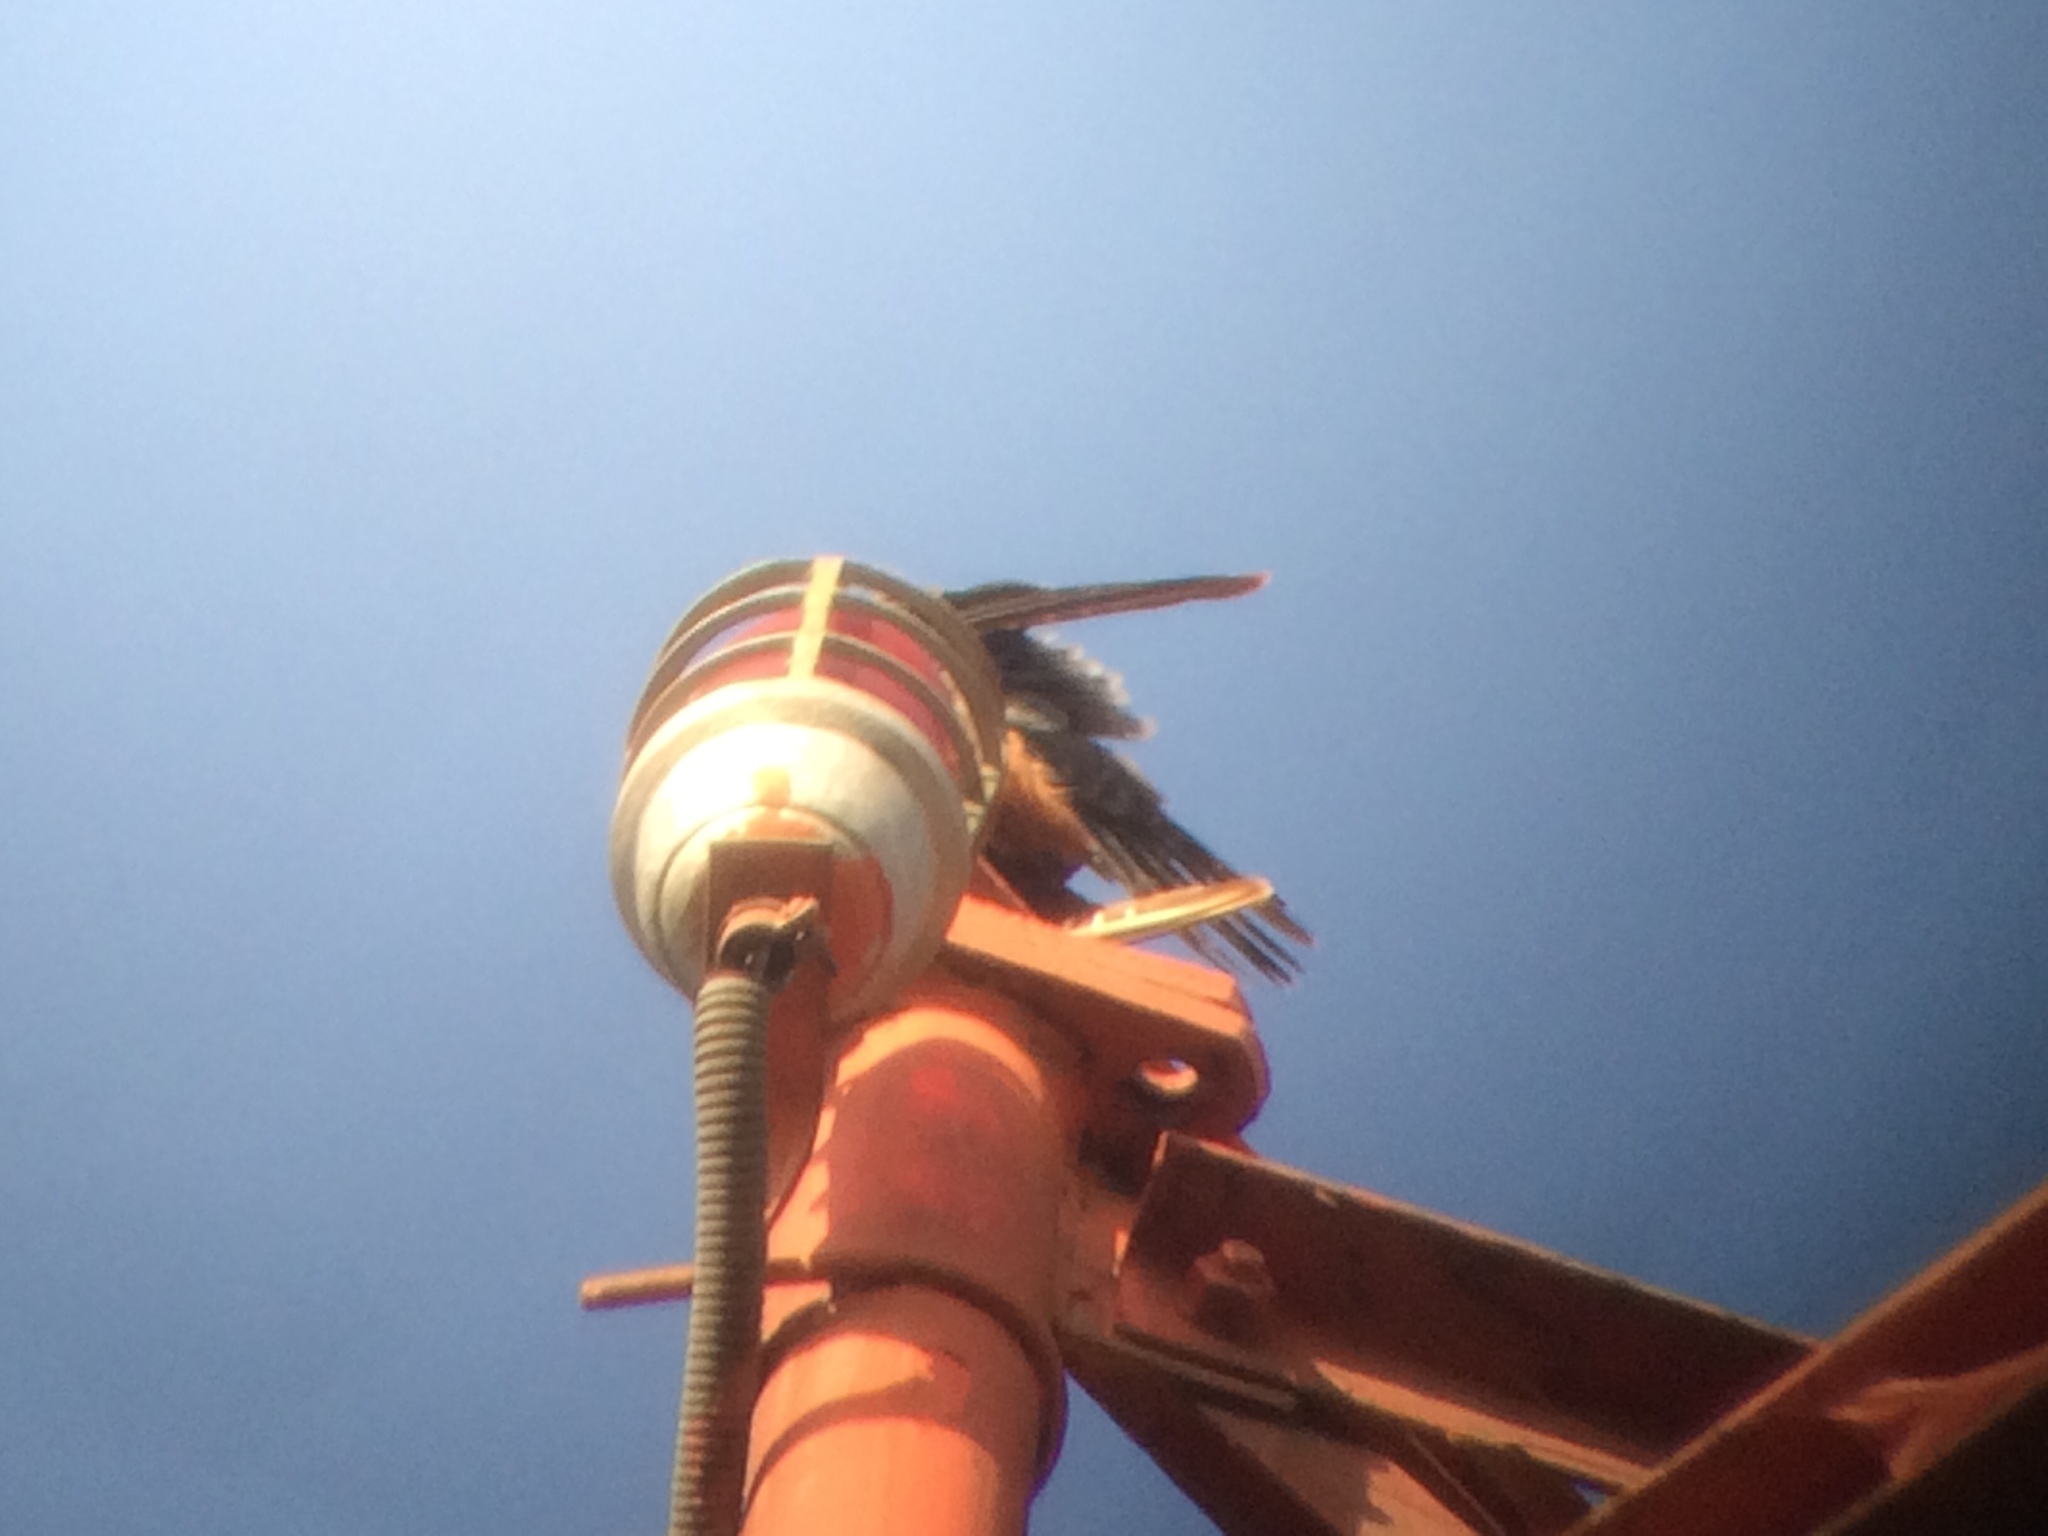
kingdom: Animalia
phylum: Chordata
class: Aves
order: Falconiformes
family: Falconidae
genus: Falco
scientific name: Falco rufigularis
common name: Bat falcon
